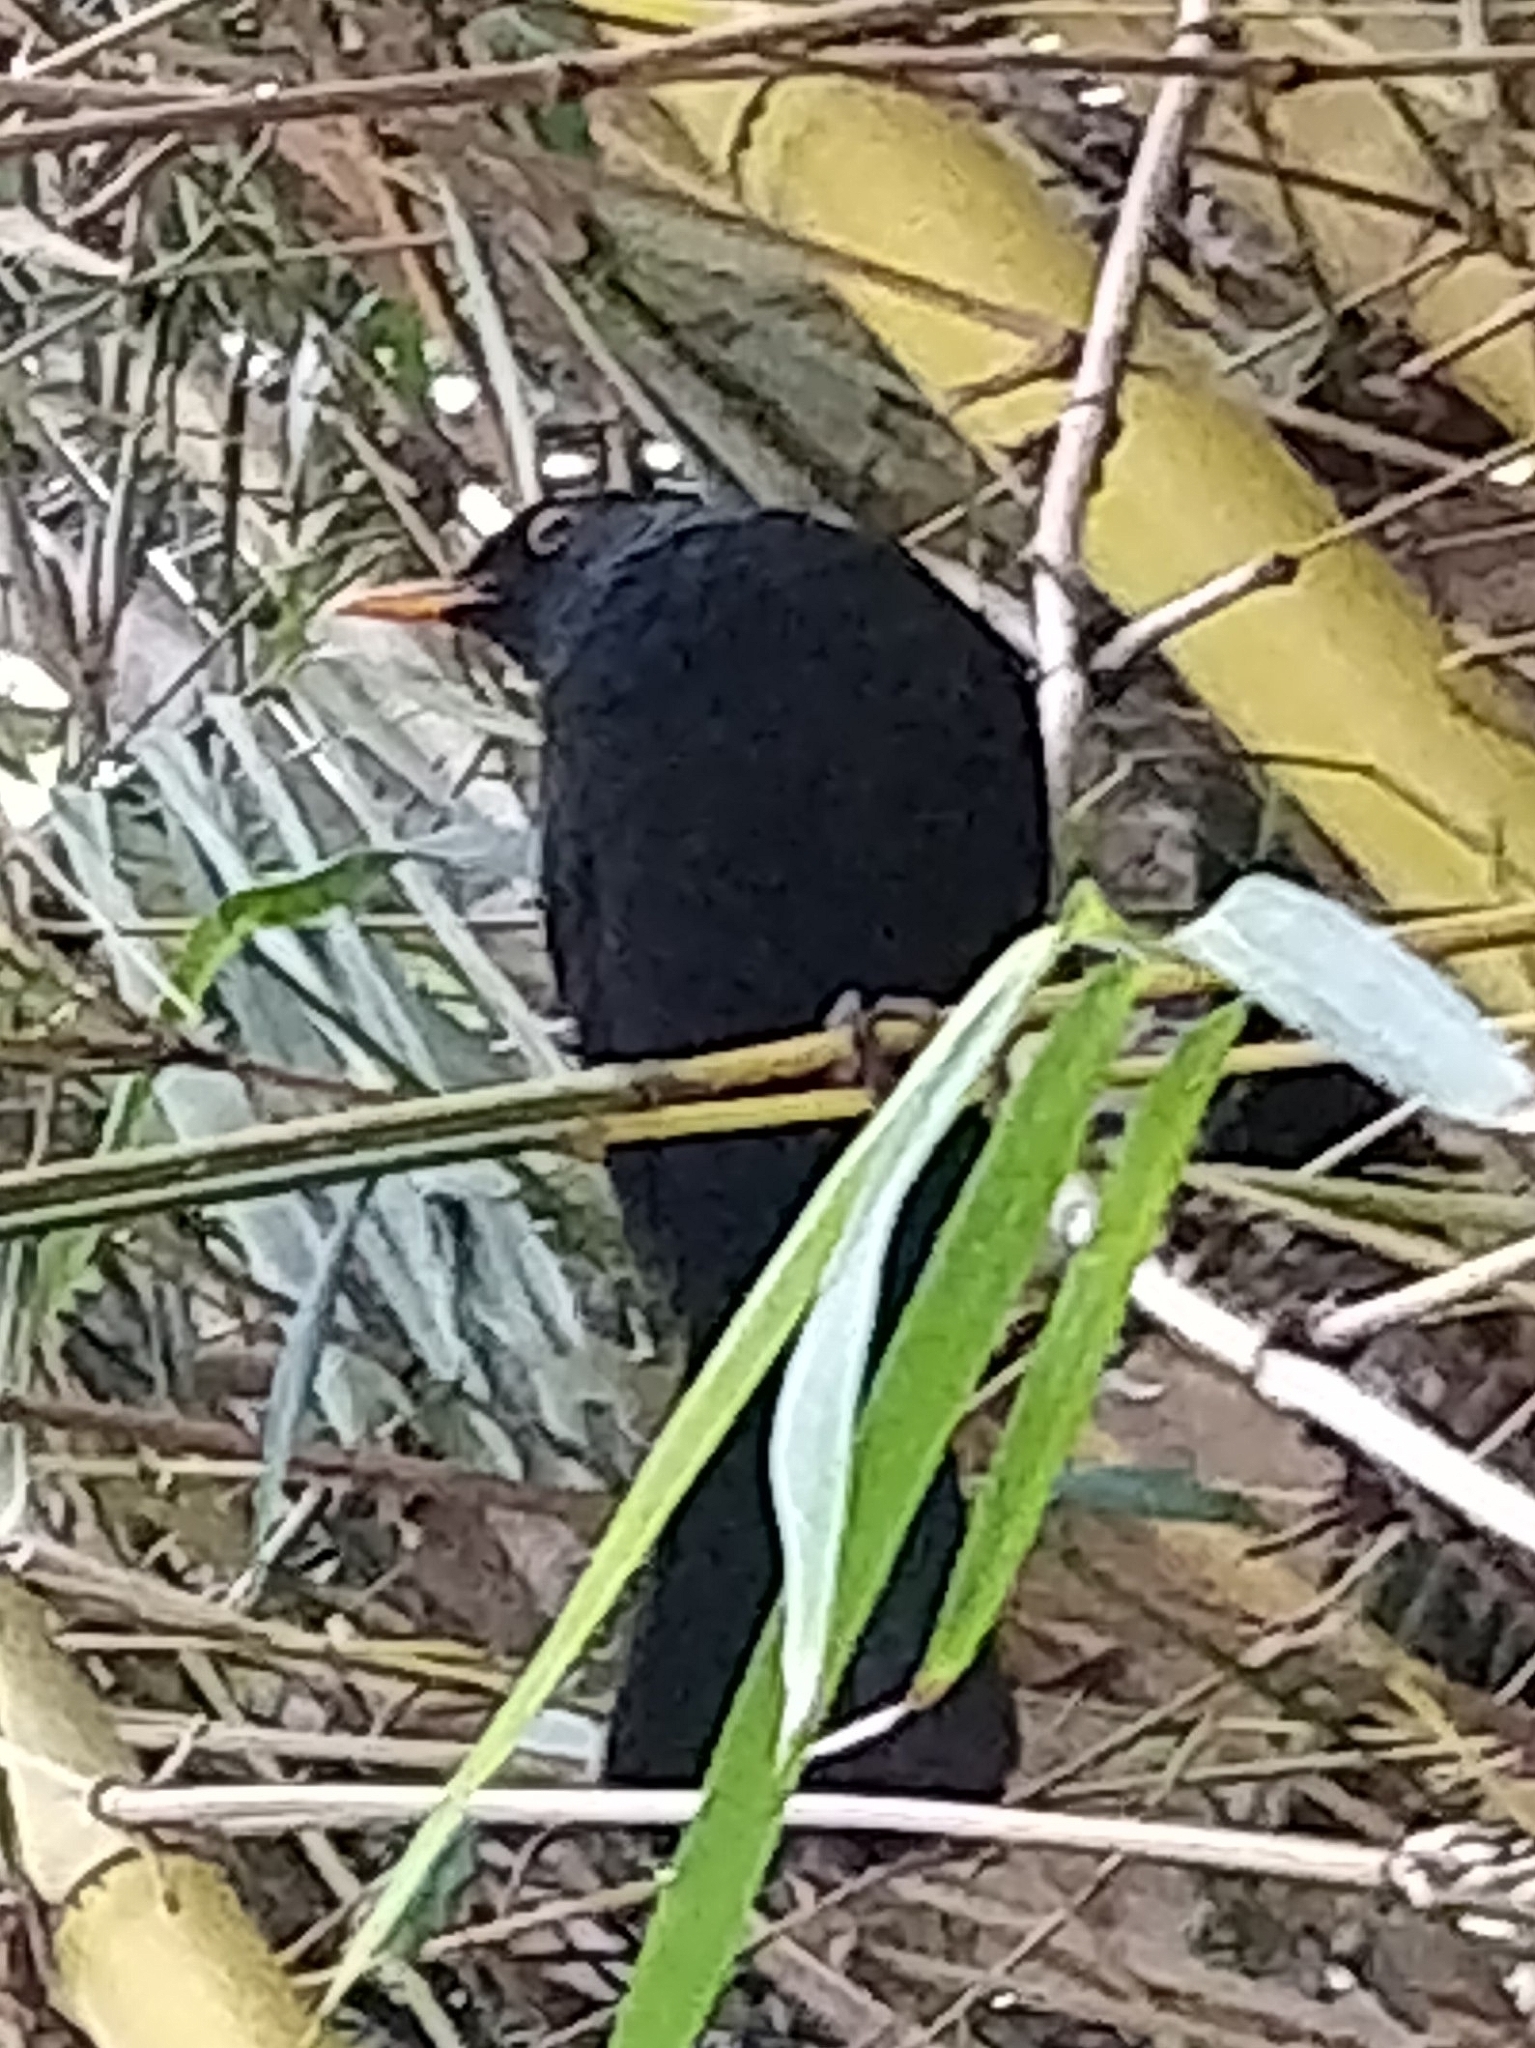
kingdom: Animalia
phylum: Chordata
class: Aves
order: Passeriformes
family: Turdidae
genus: Turdus
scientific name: Turdus merula
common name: Common blackbird
